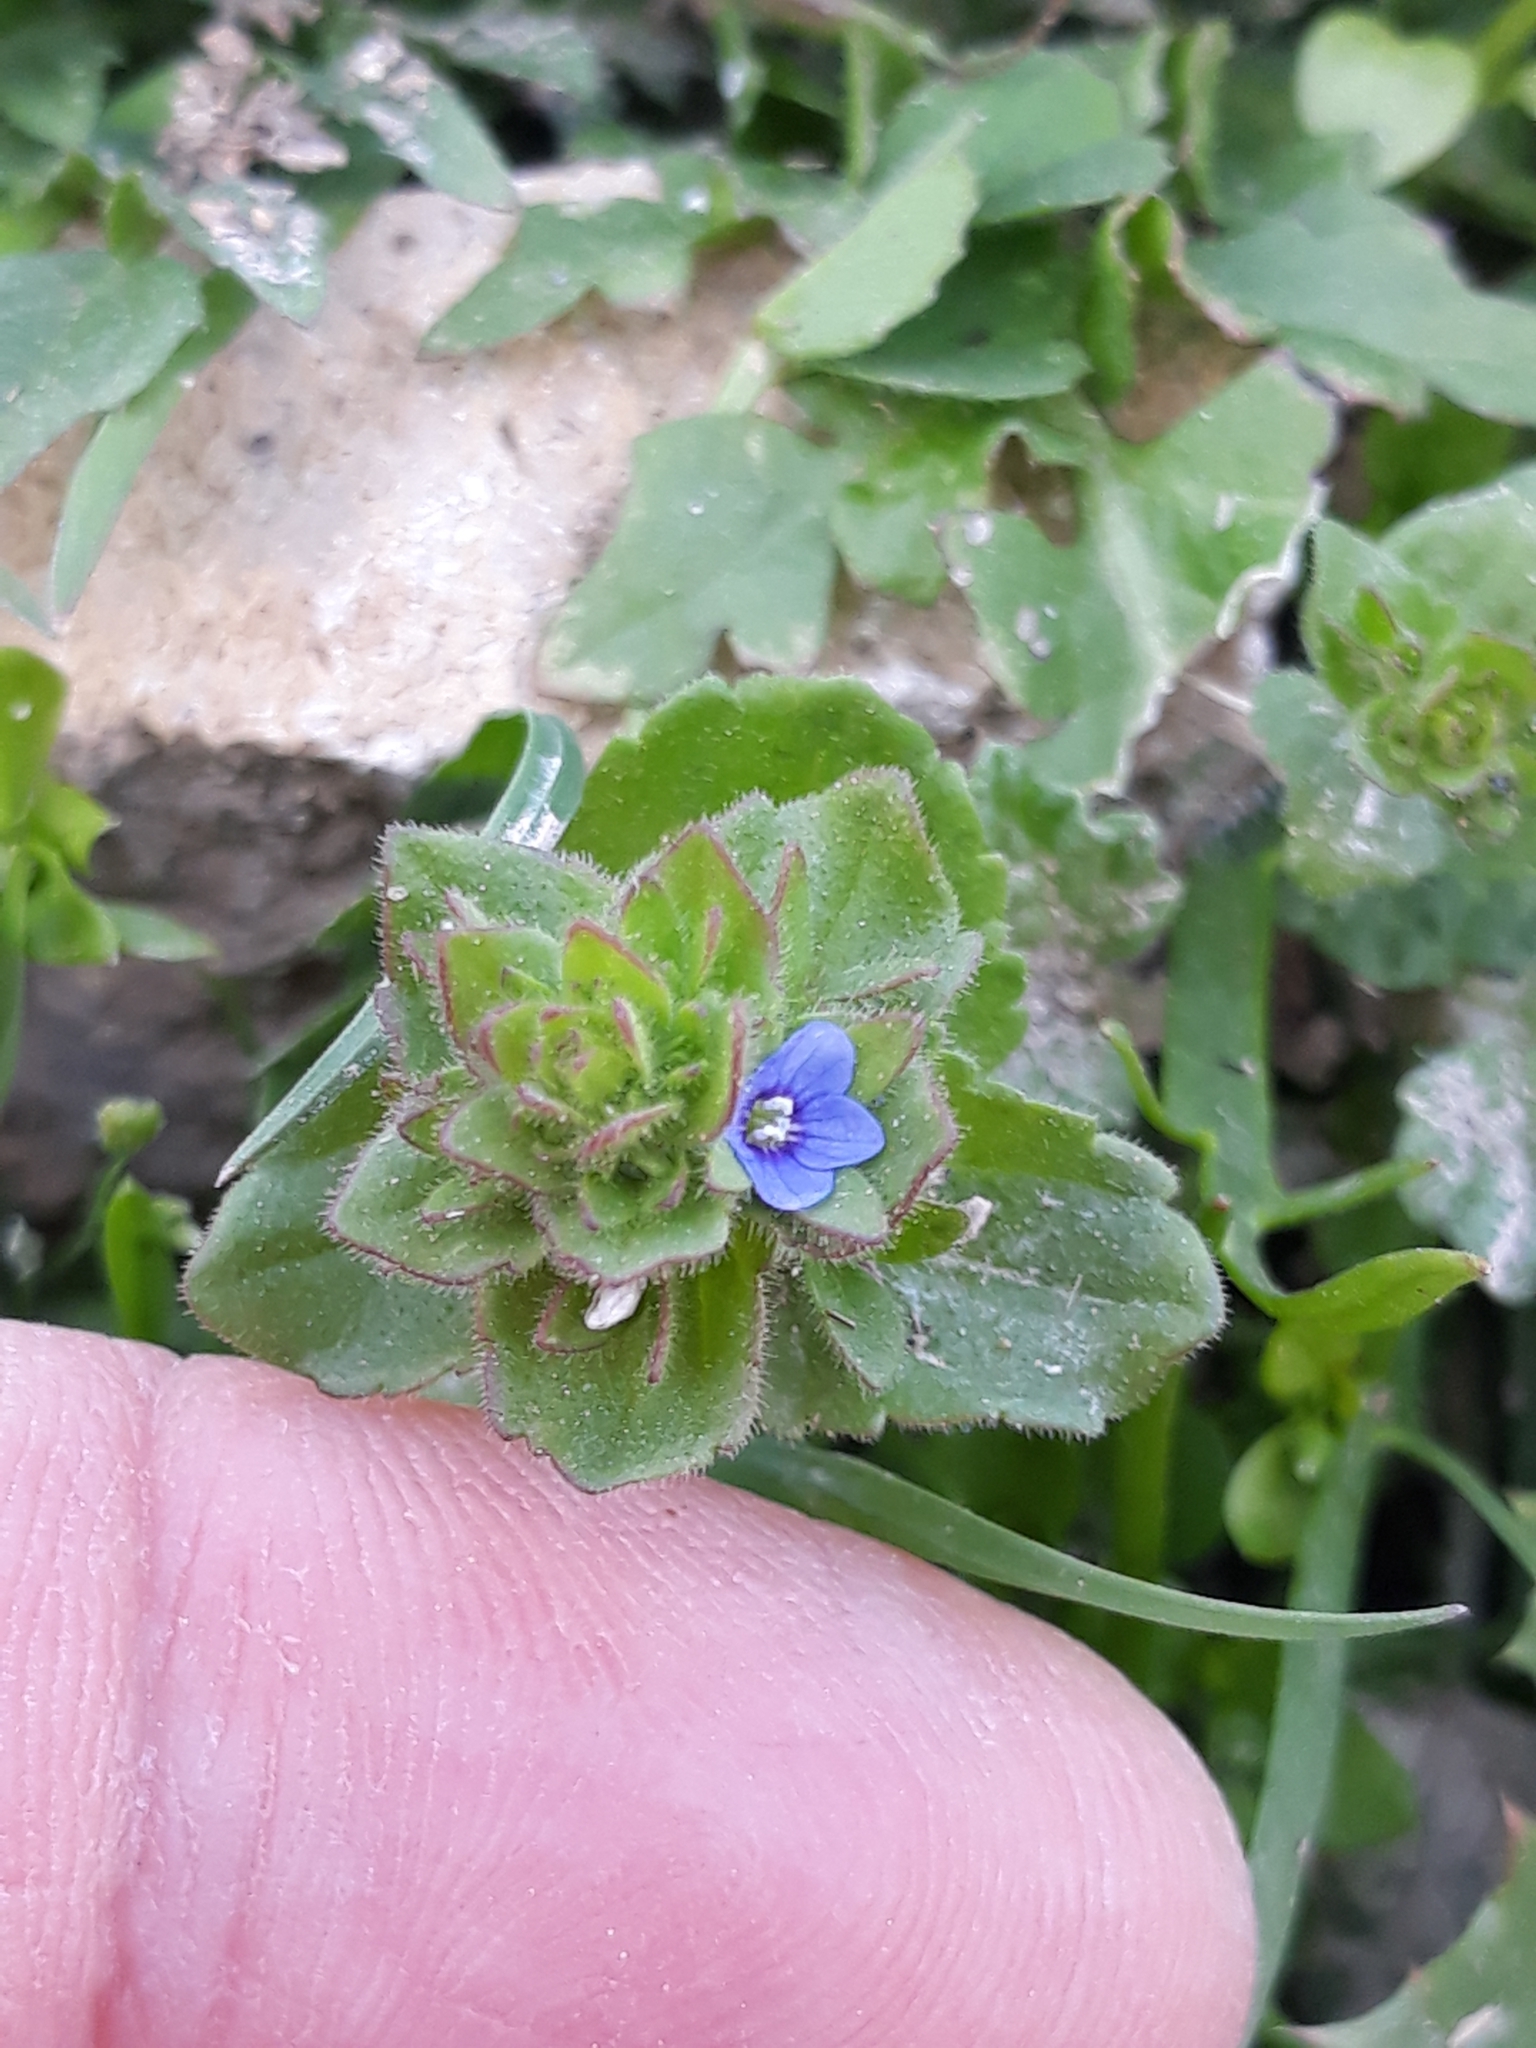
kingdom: Plantae
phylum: Tracheophyta
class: Magnoliopsida
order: Lamiales
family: Plantaginaceae
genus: Veronica
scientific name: Veronica arvensis
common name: Corn speedwell
